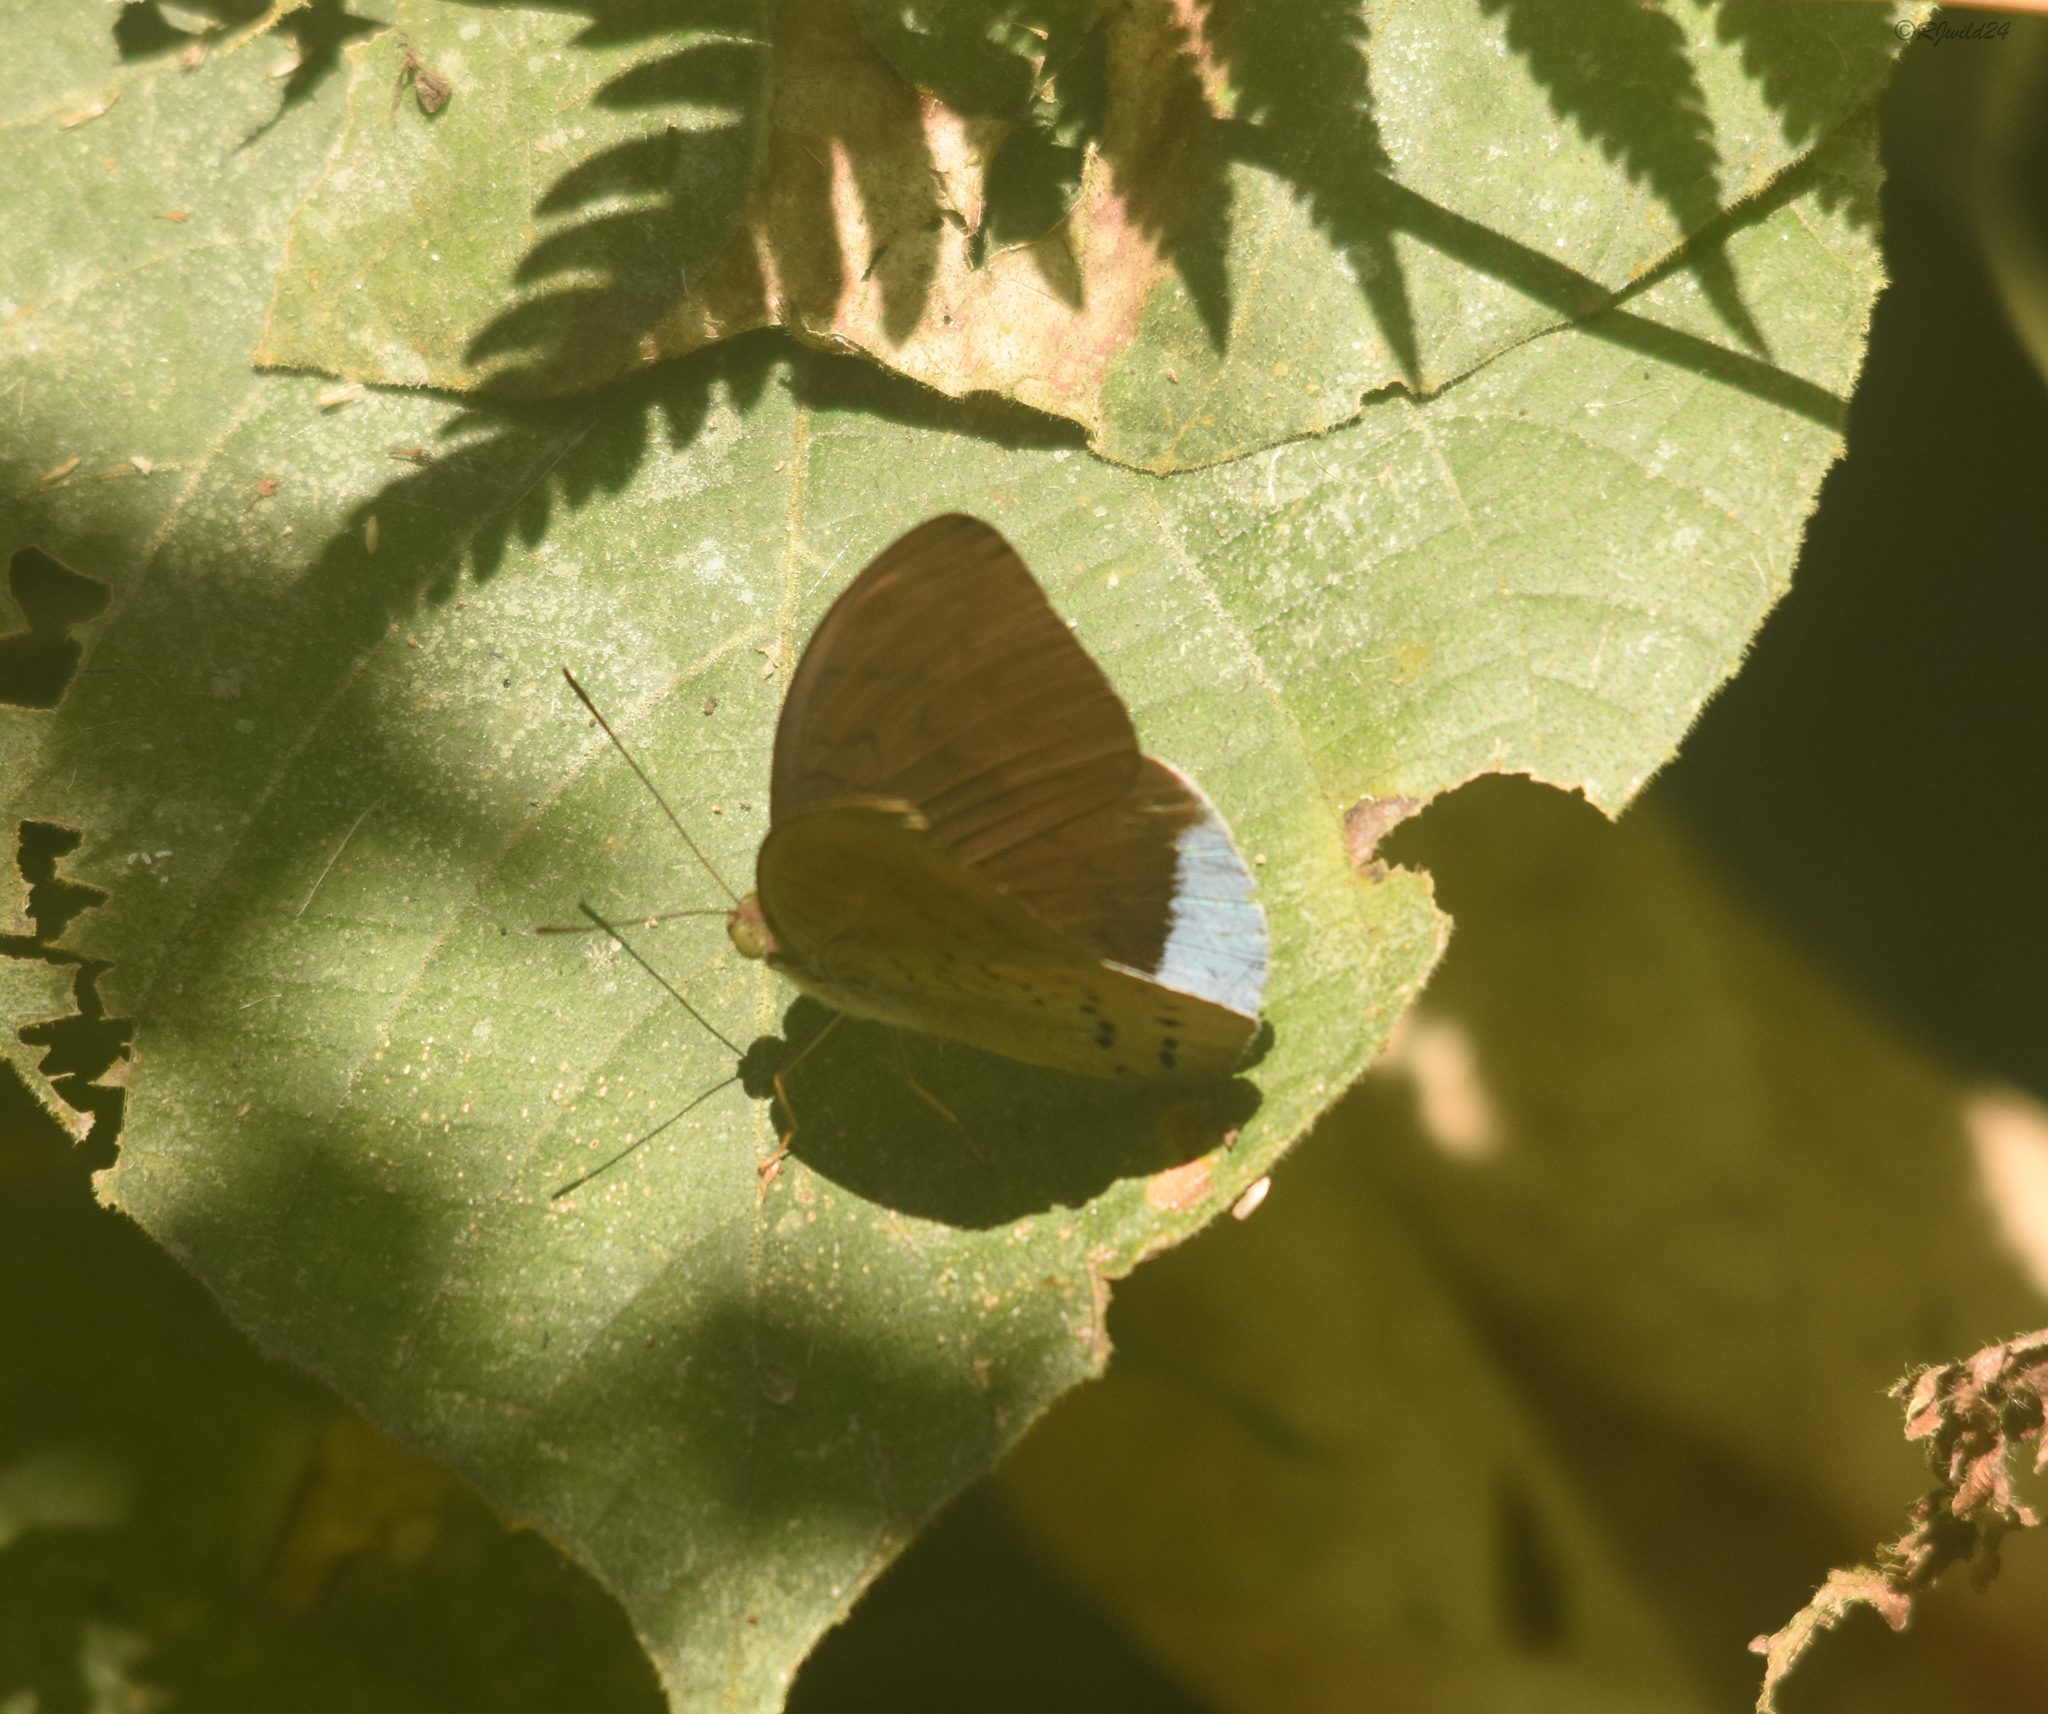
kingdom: Animalia
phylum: Arthropoda
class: Insecta
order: Lepidoptera
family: Nymphalidae
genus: Tanaecia
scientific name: Tanaecia julii
